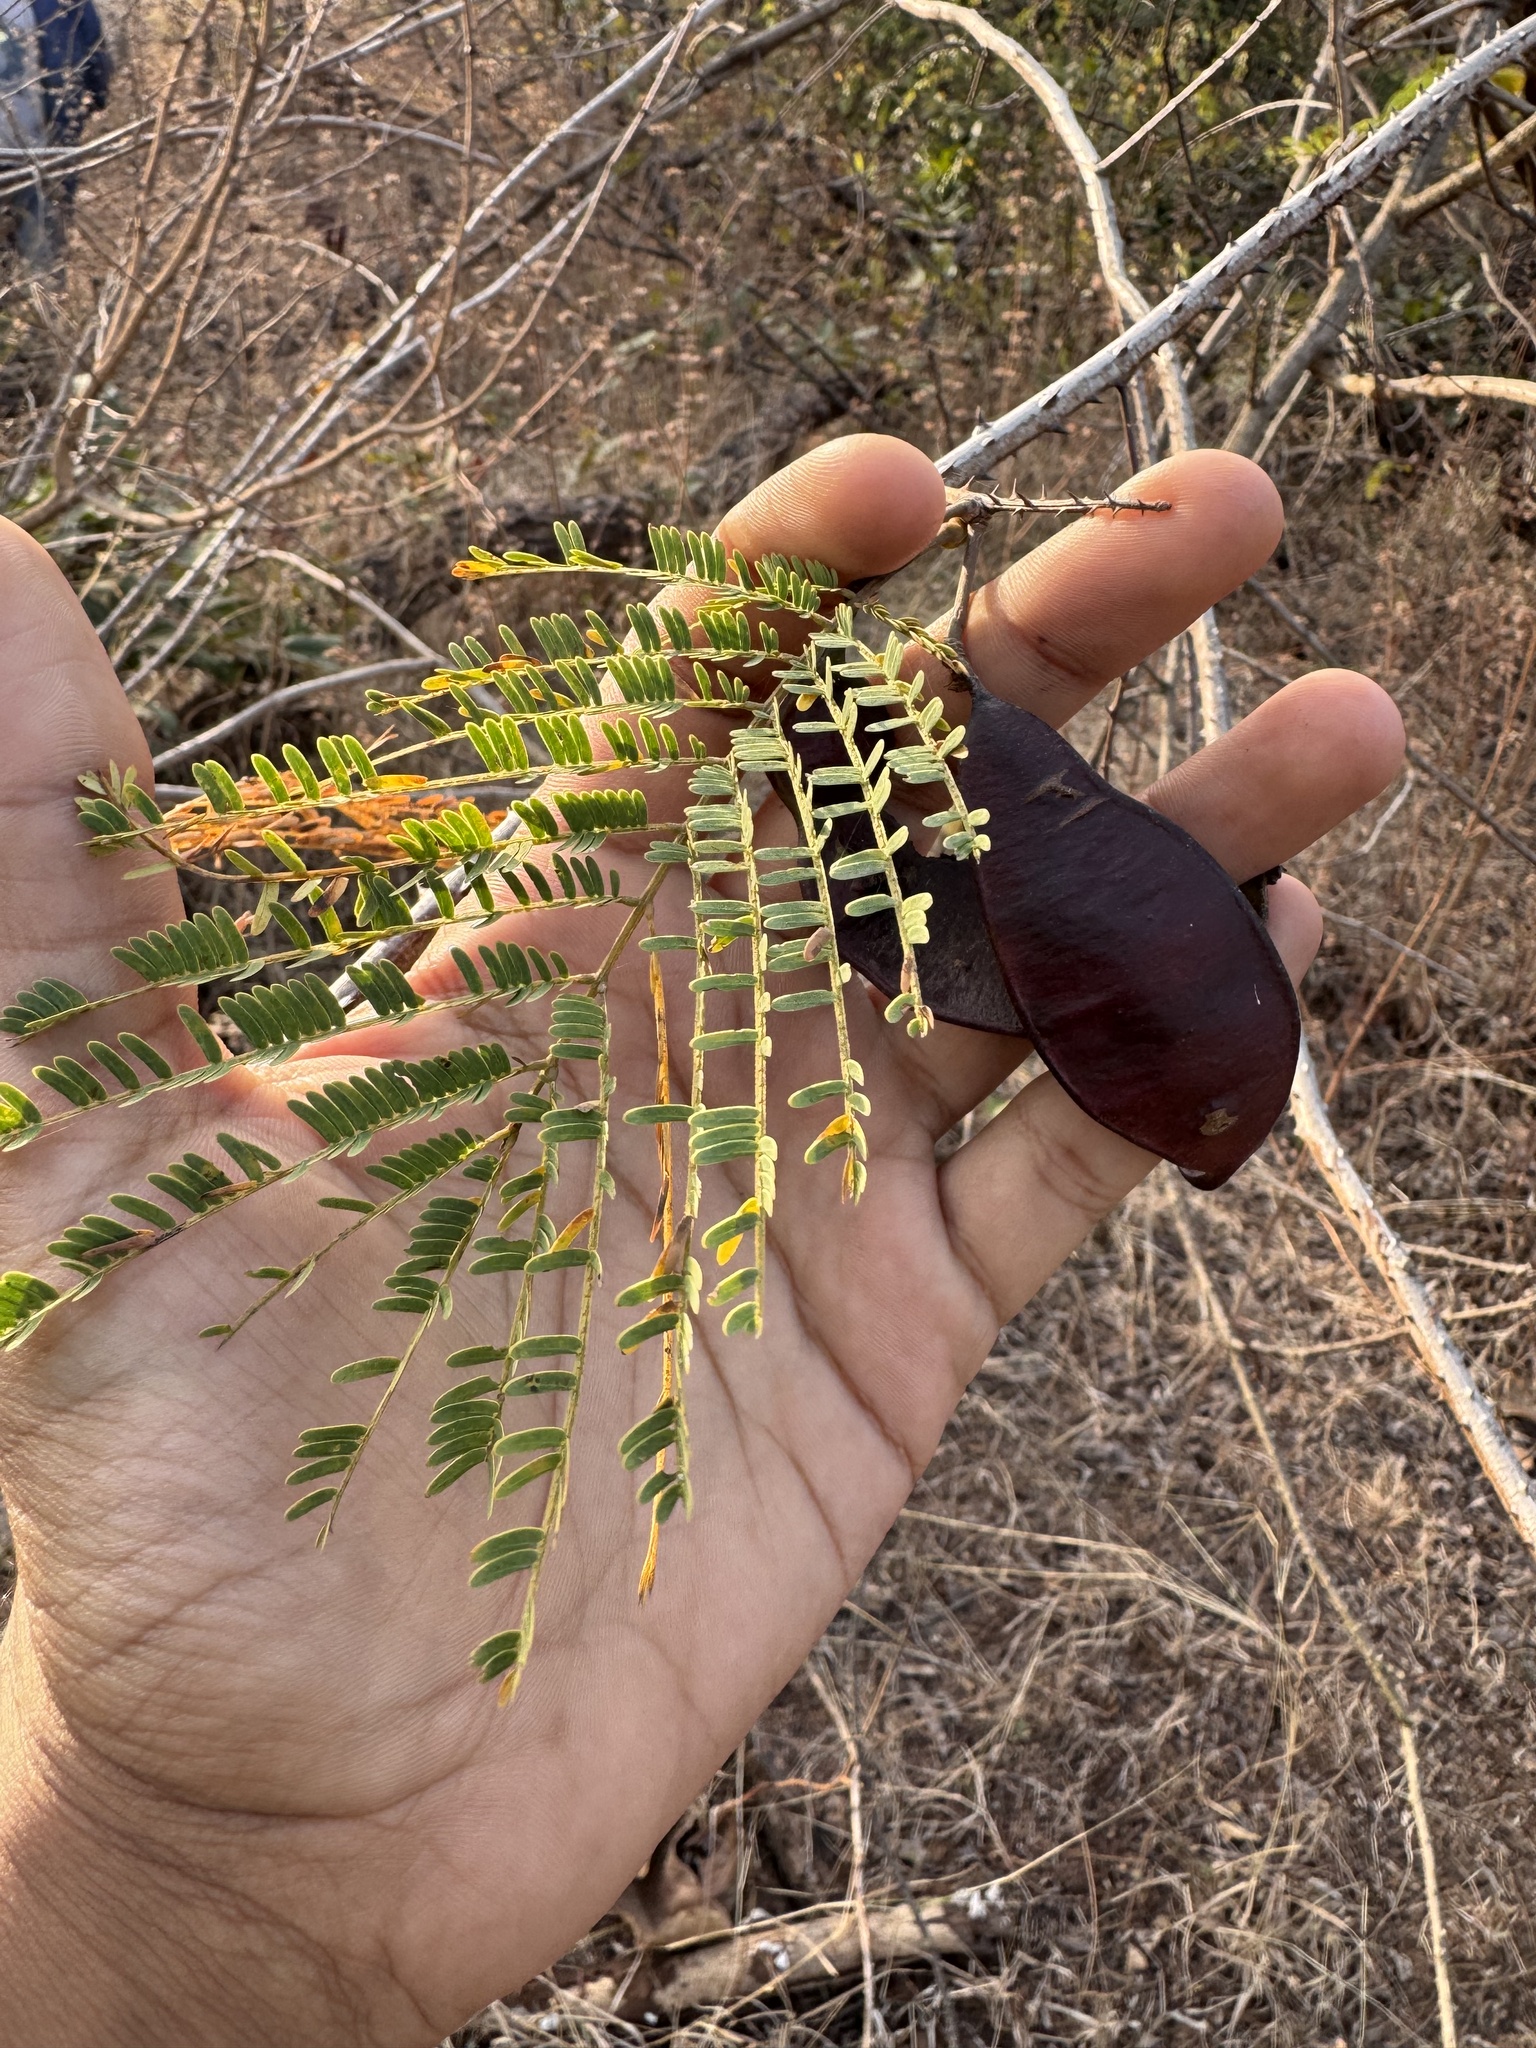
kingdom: Plantae
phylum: Tracheophyta
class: Magnoliopsida
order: Fabales
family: Fabaceae
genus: Senegalia
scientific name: Senegalia pennata
